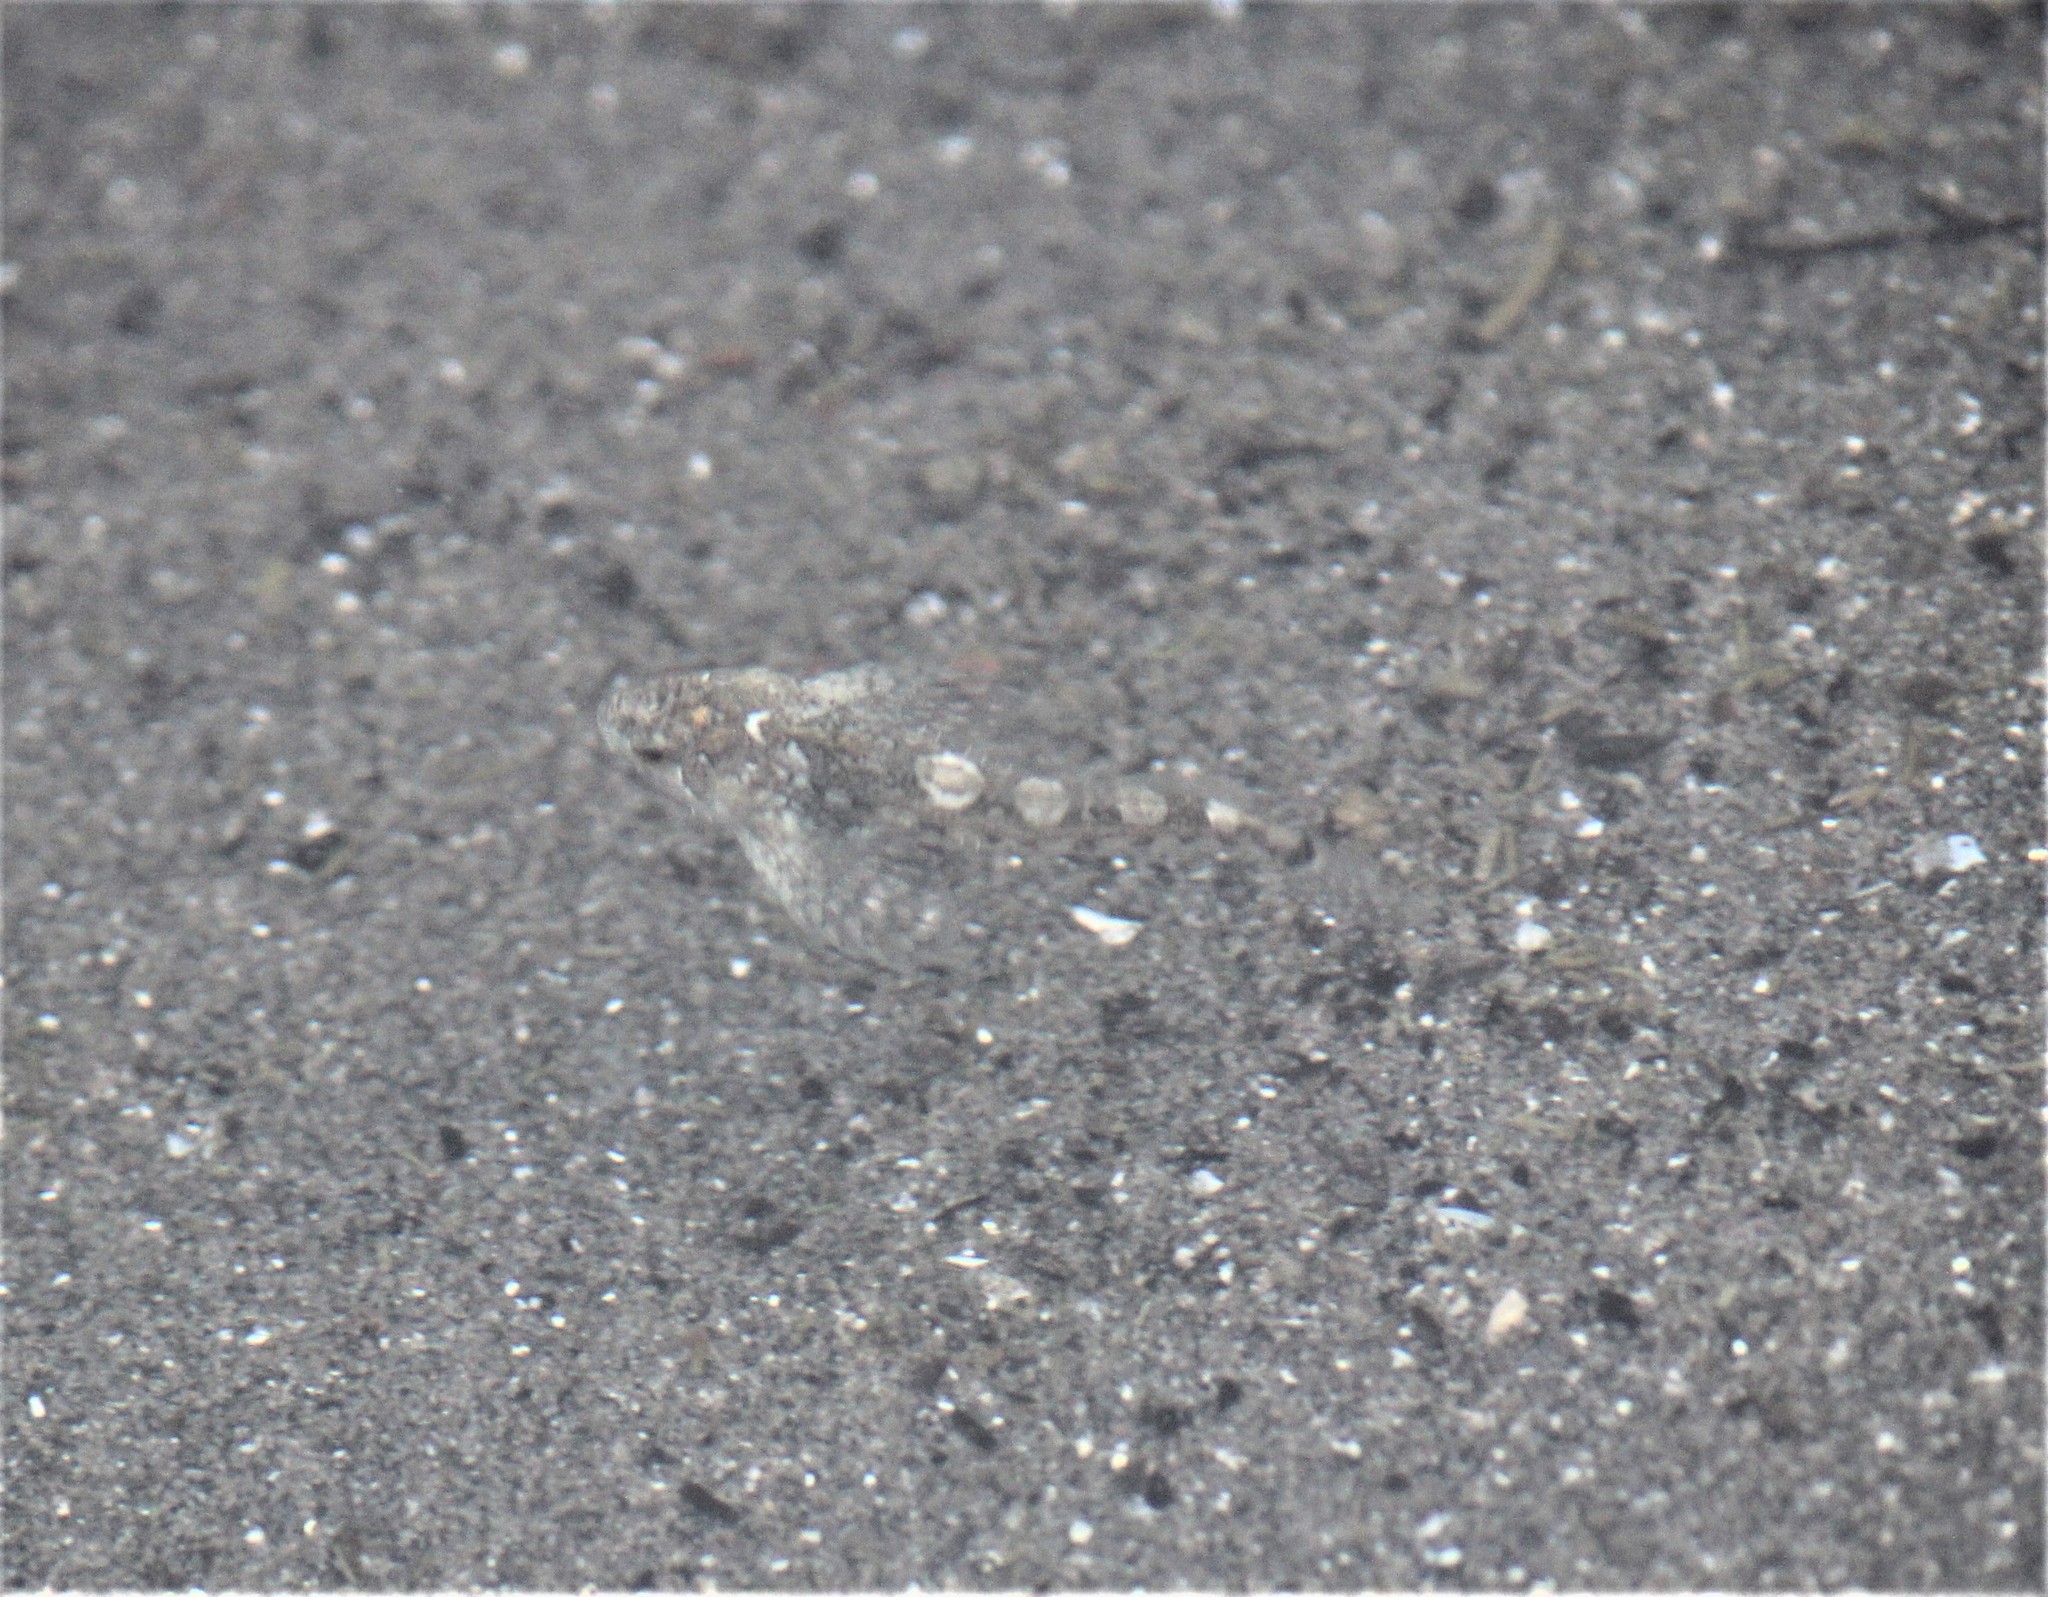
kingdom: Animalia
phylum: Chordata
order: Scorpaeniformes
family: Cottidae
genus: Clinocottus
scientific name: Clinocottus acuticeps
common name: Sharpnose sculpin
